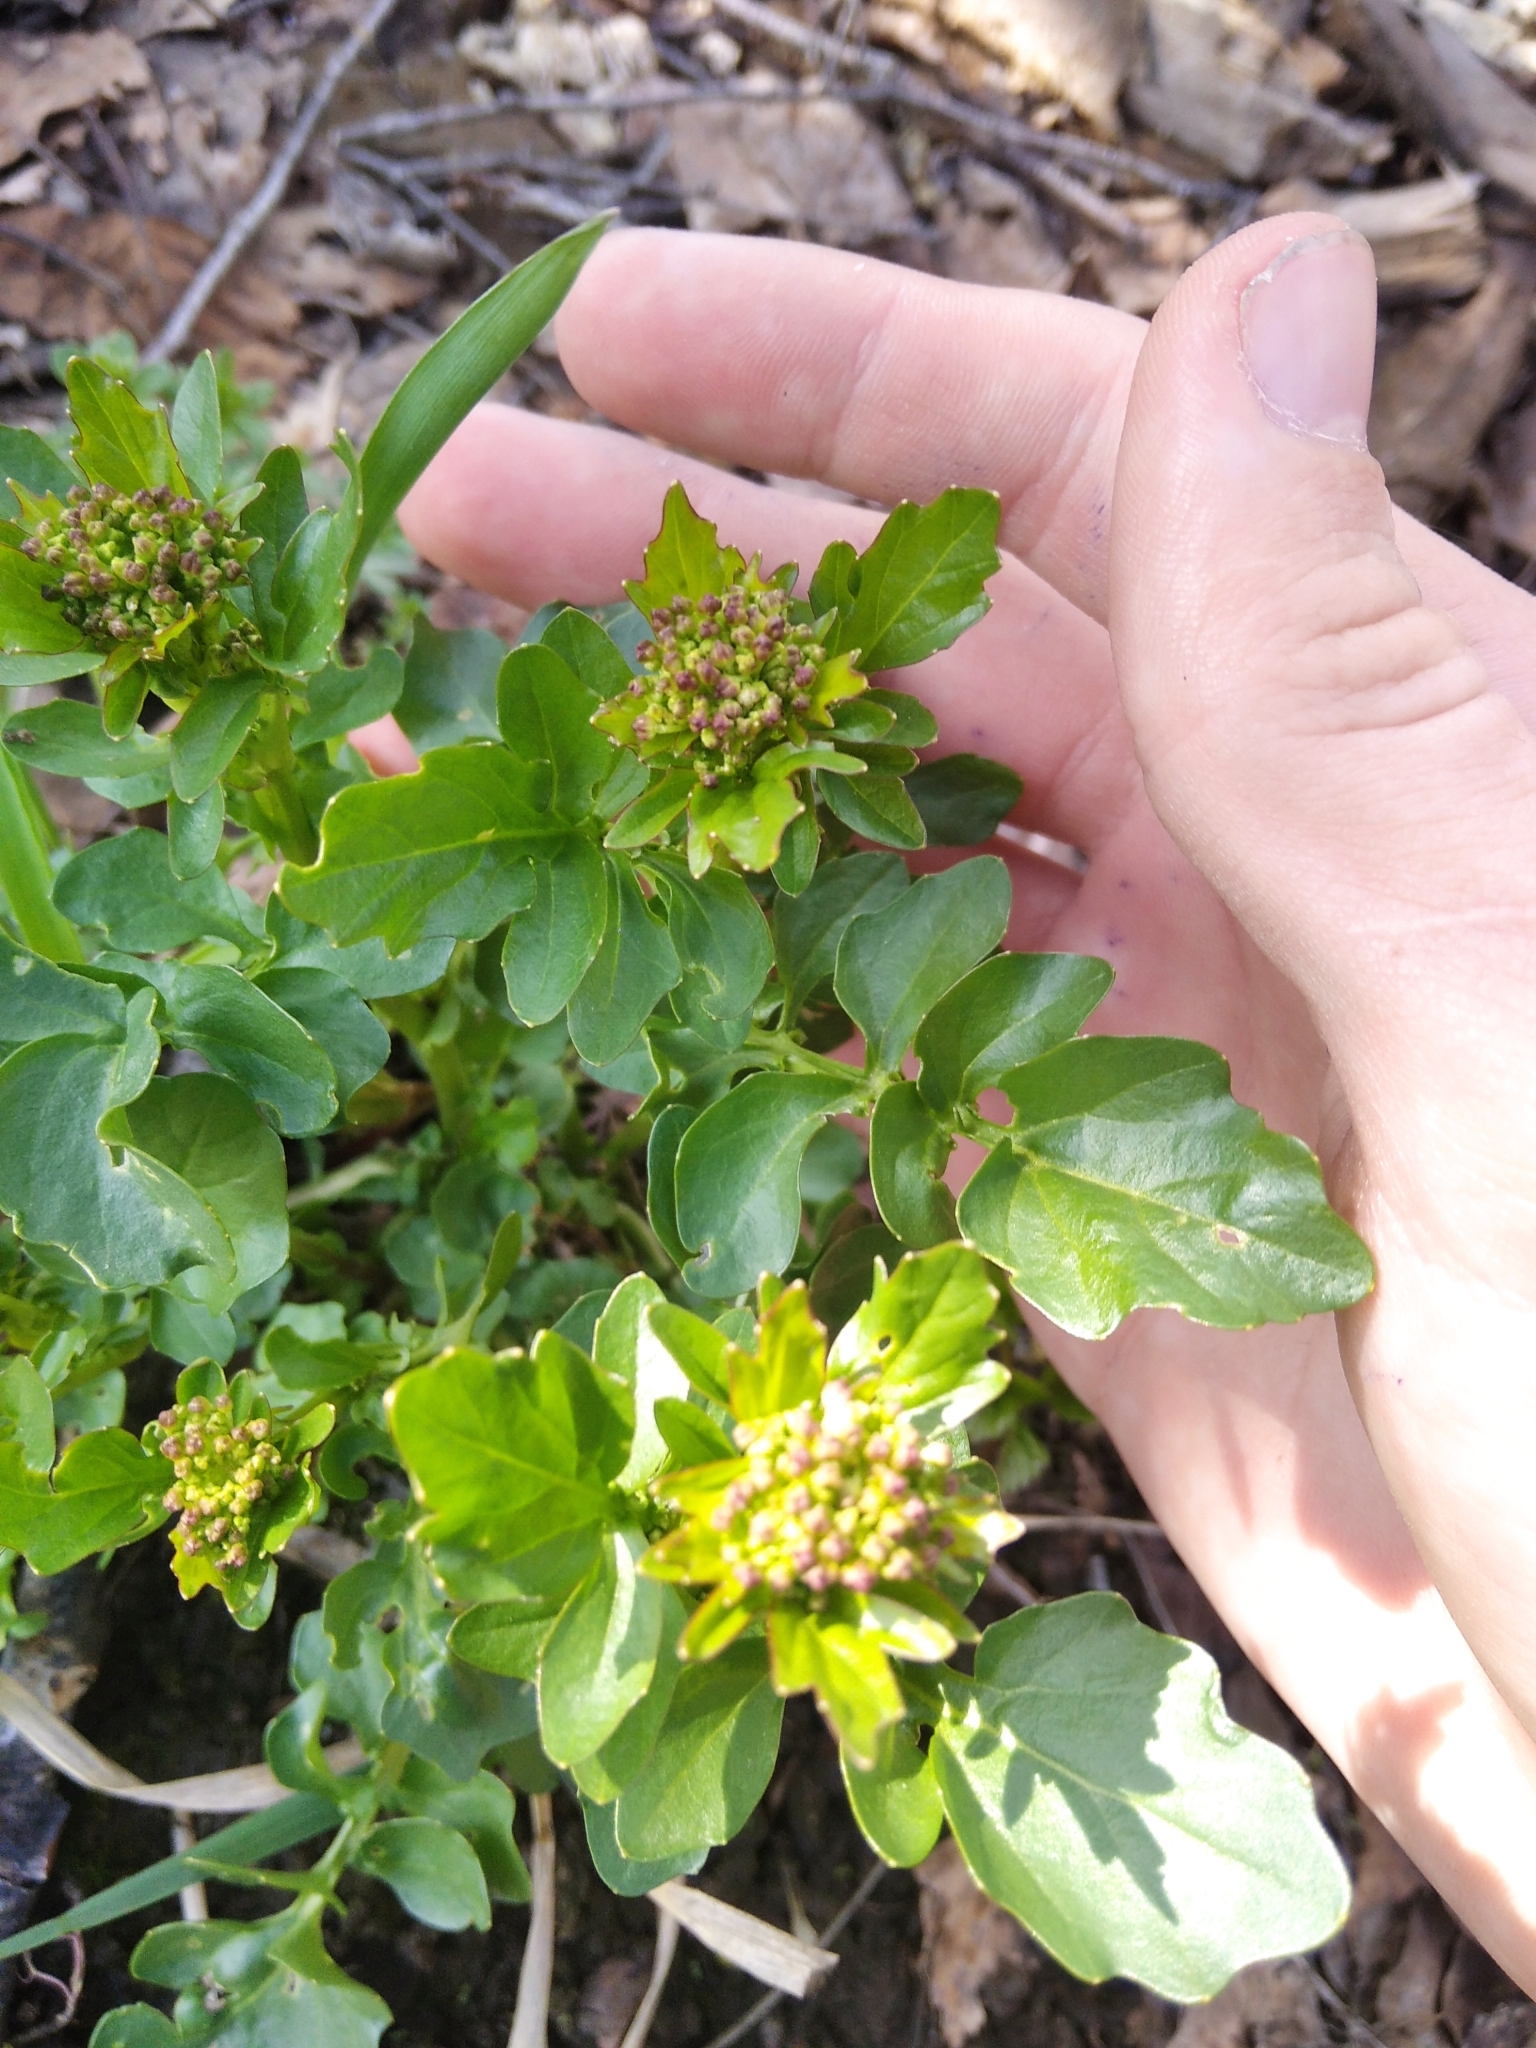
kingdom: Plantae
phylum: Tracheophyta
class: Magnoliopsida
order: Brassicales
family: Brassicaceae
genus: Barbarea
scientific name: Barbarea vulgaris
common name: Cressy-greens
